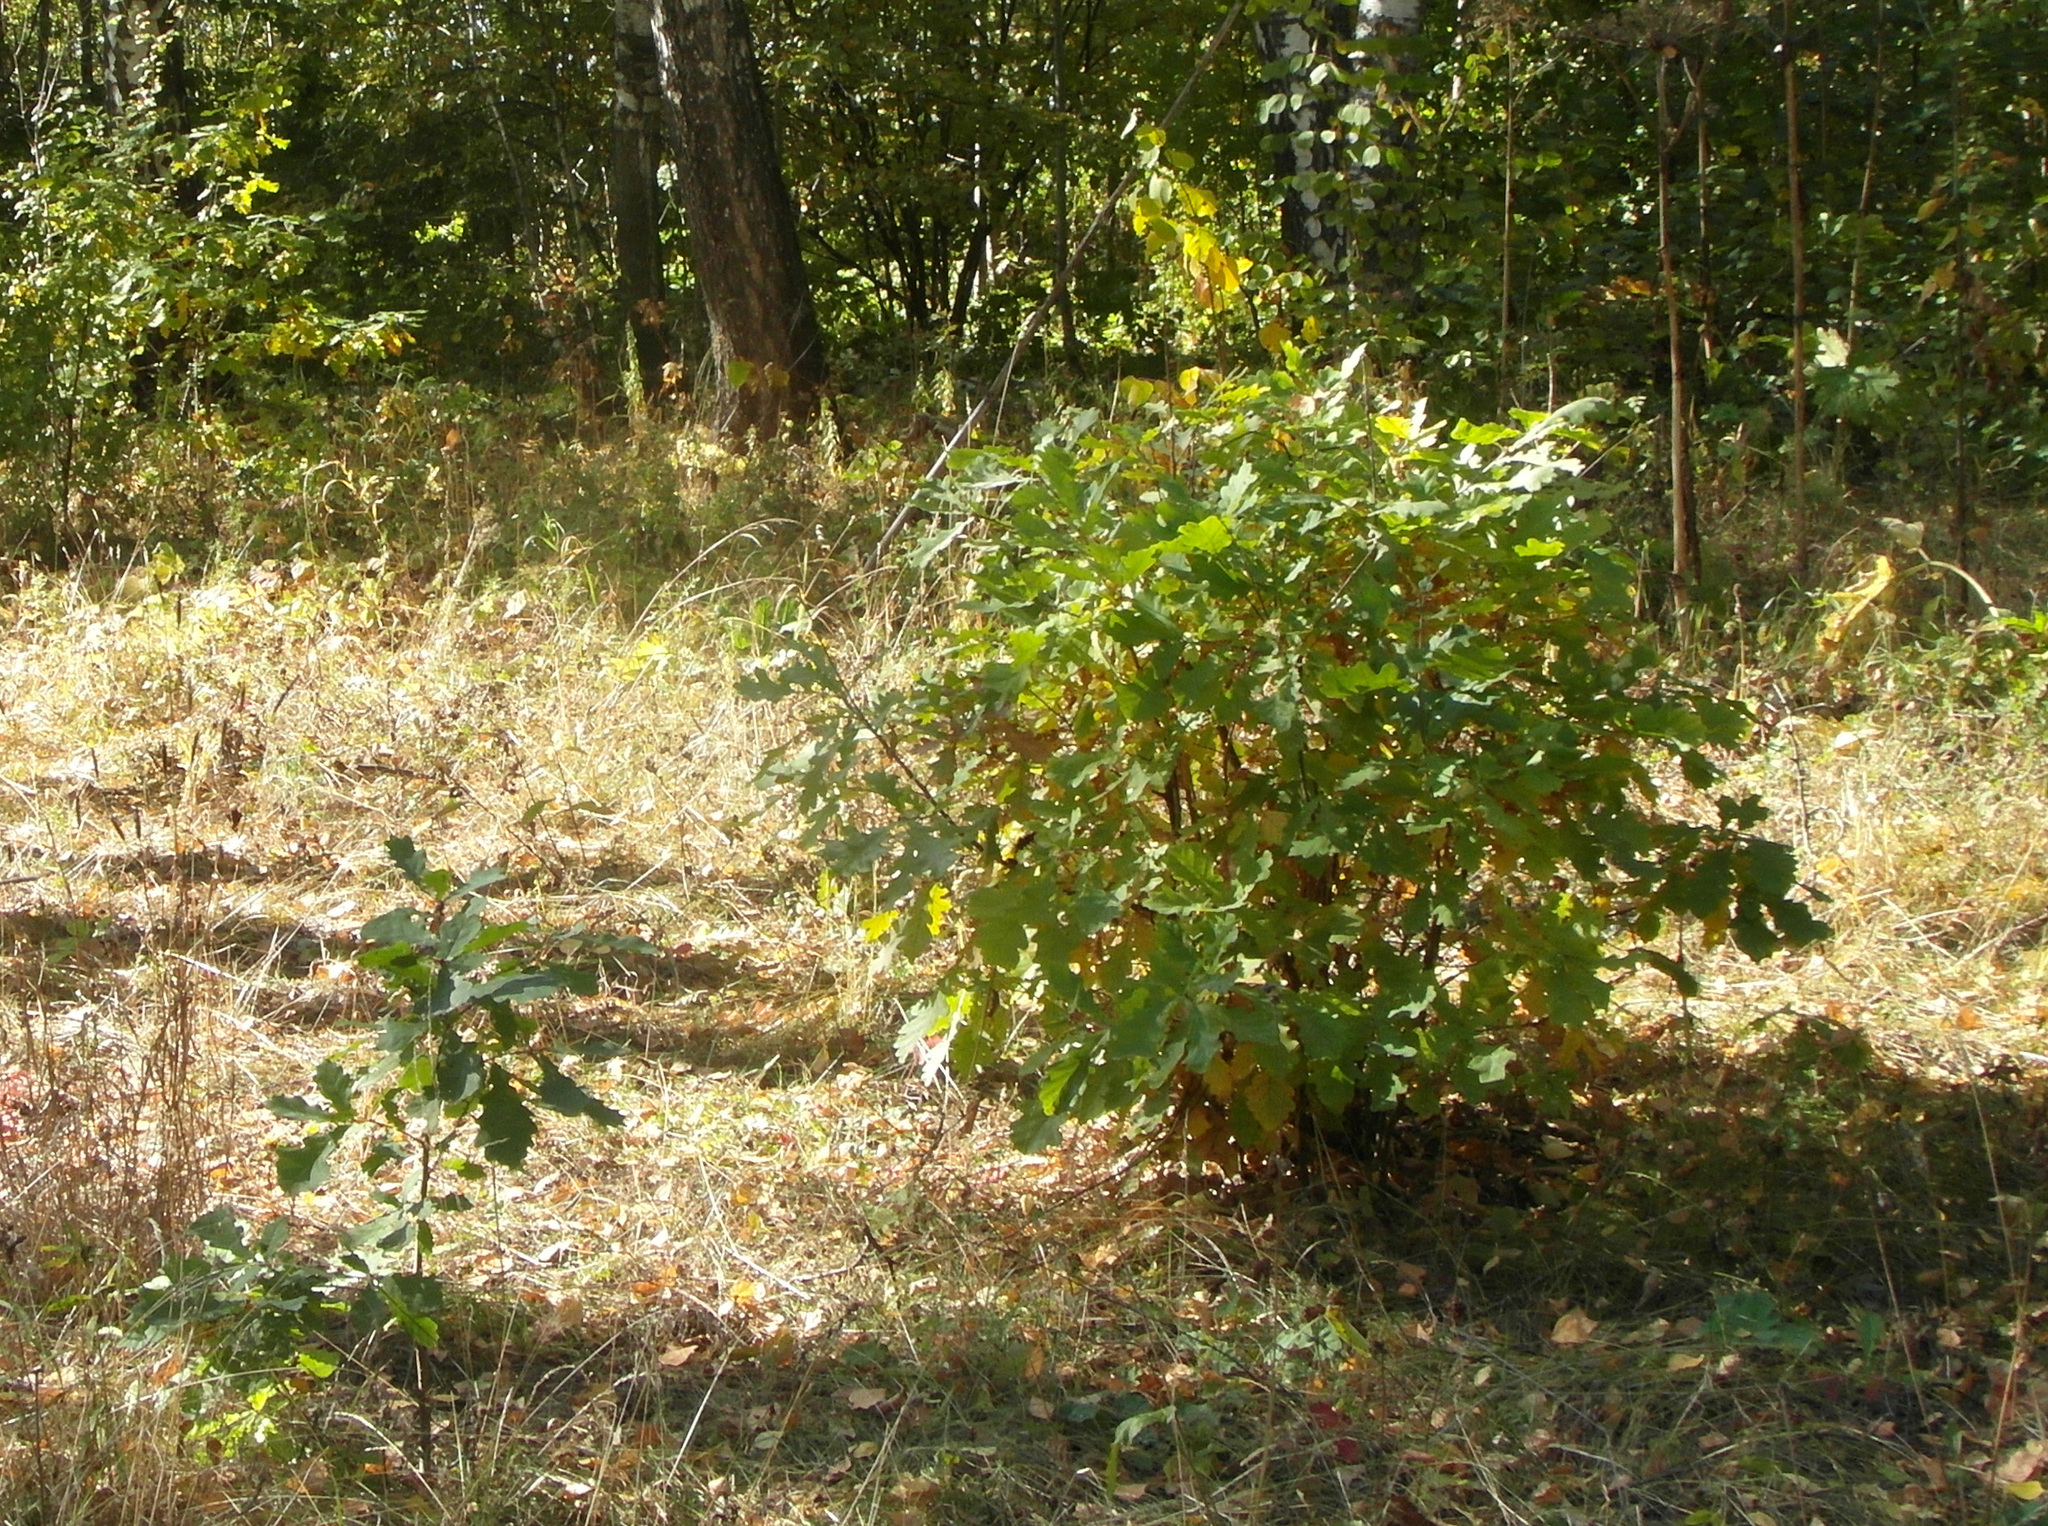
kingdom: Plantae
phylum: Tracheophyta
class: Magnoliopsida
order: Fagales
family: Fagaceae
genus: Quercus
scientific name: Quercus robur
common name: Pedunculate oak
